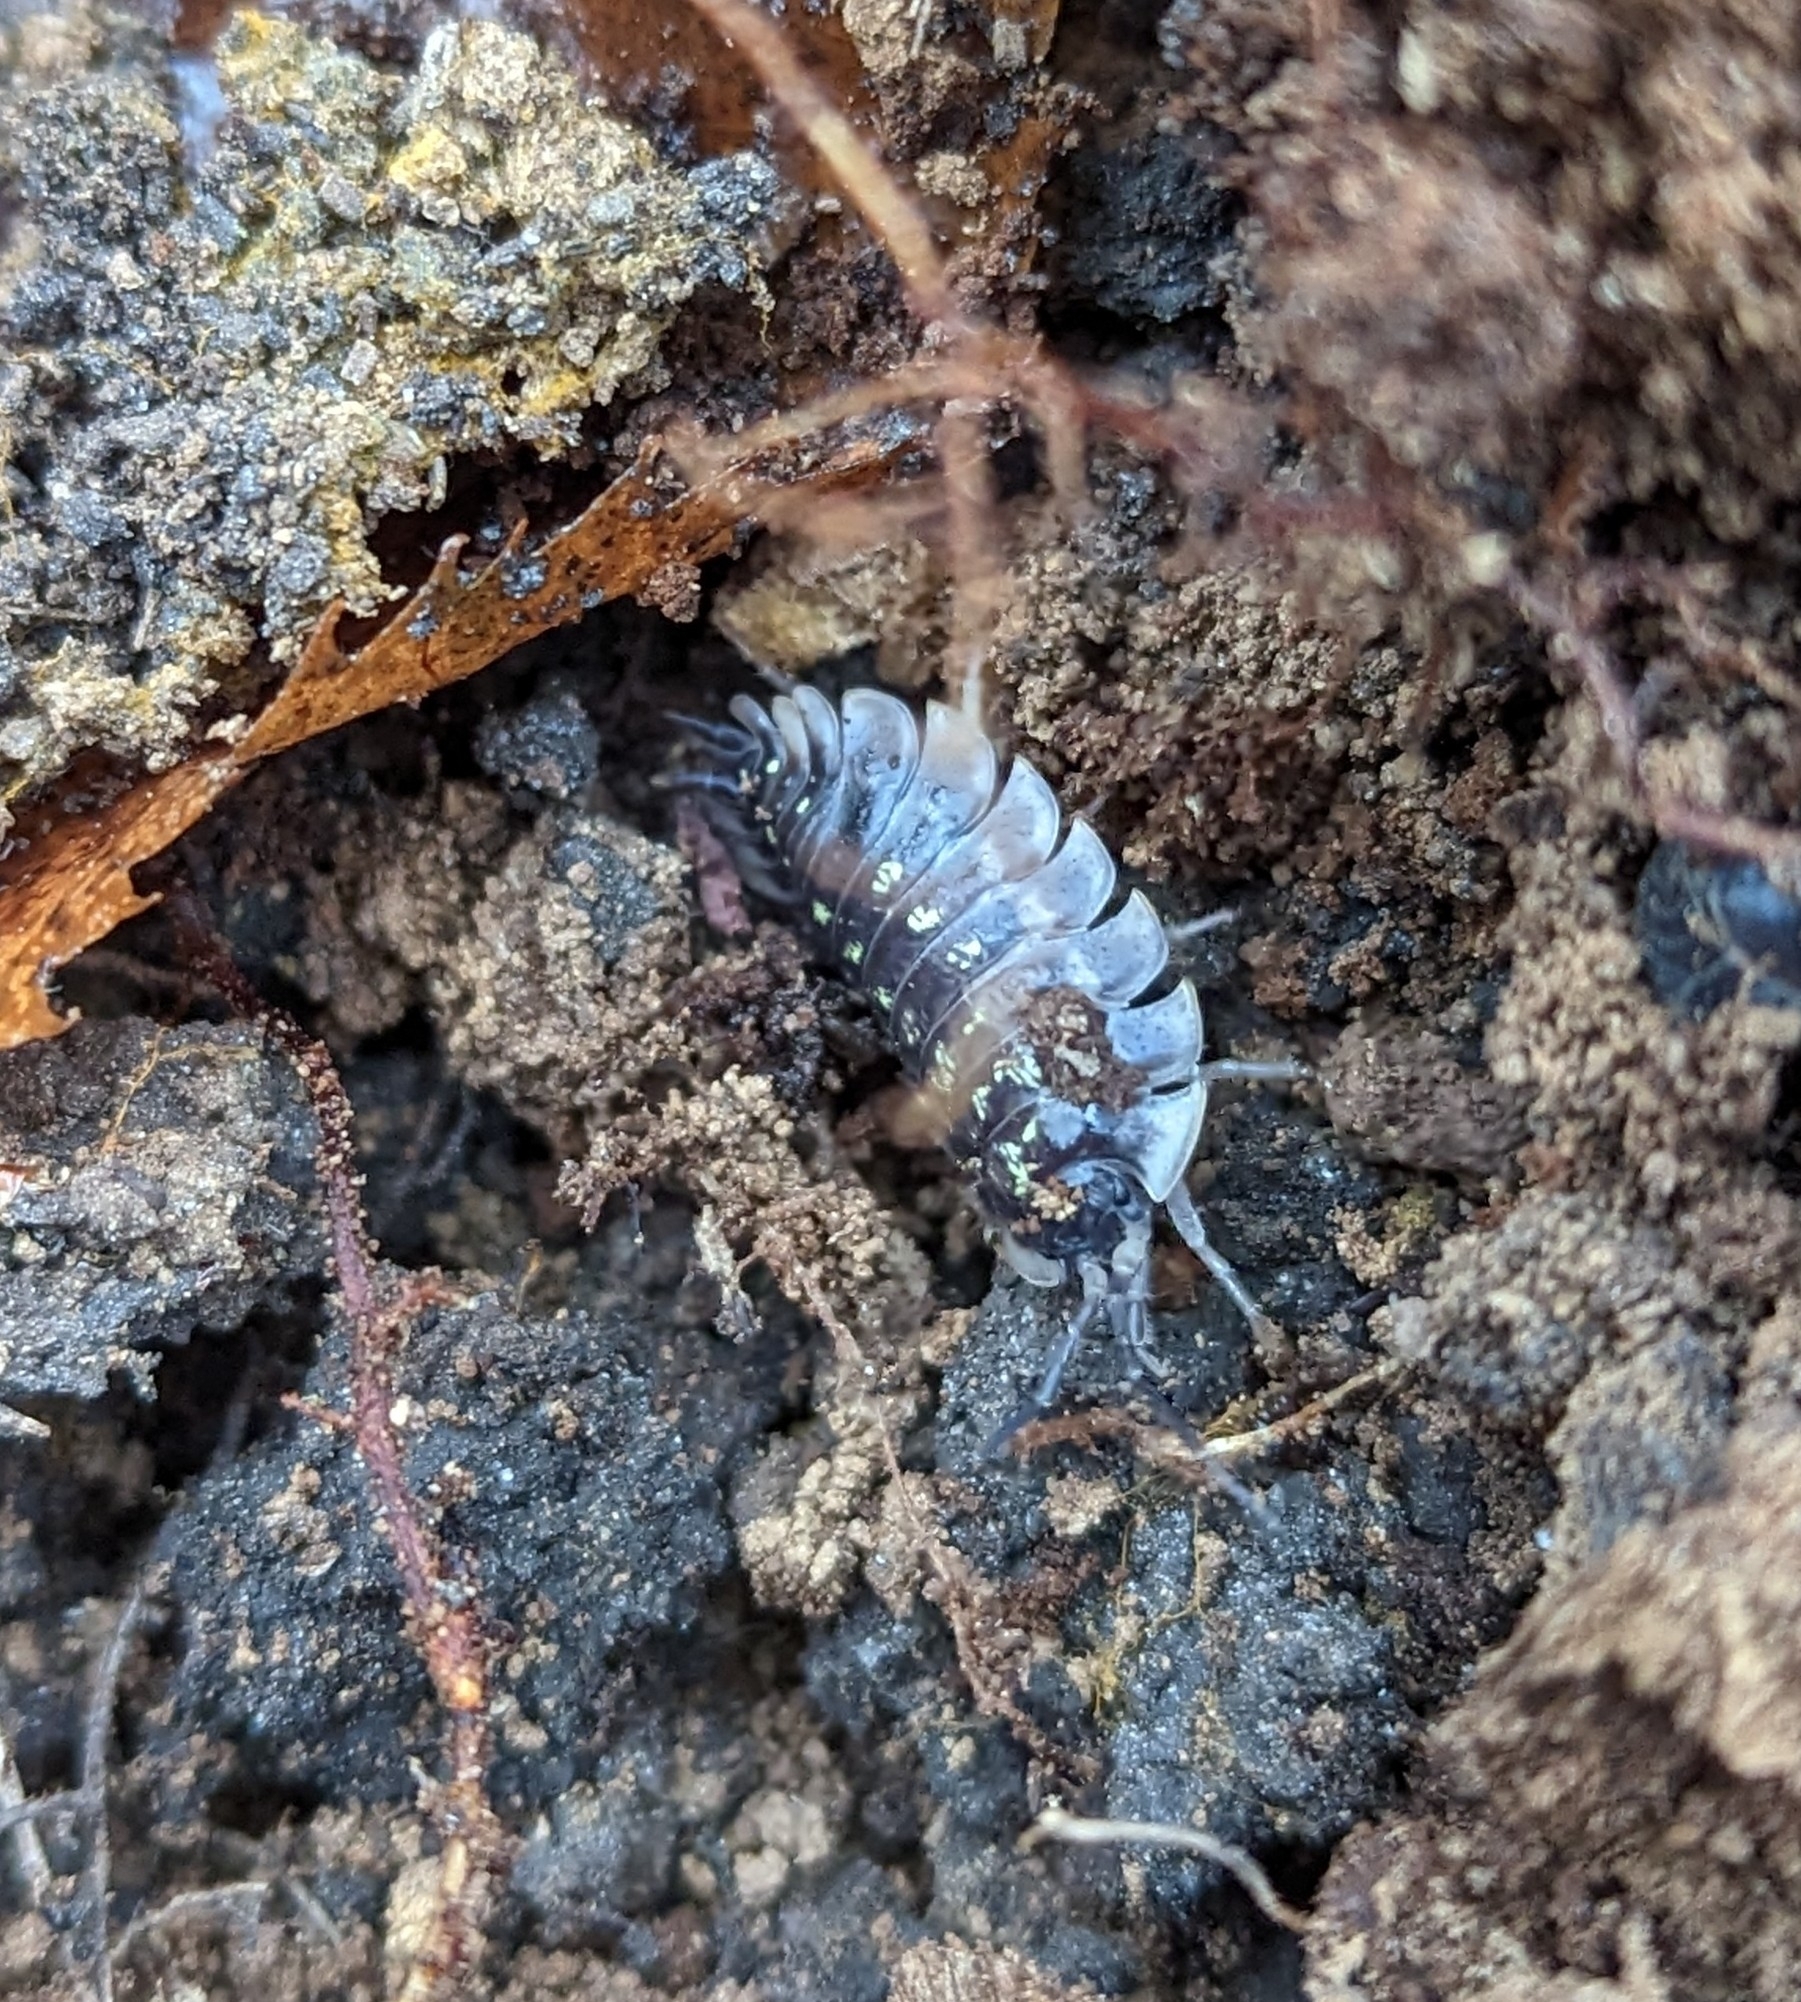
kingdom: Animalia
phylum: Arthropoda
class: Malacostraca
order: Isopoda
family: Oniscidae
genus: Oniscus
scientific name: Oniscus asellus
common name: Common shiny woodlouse
